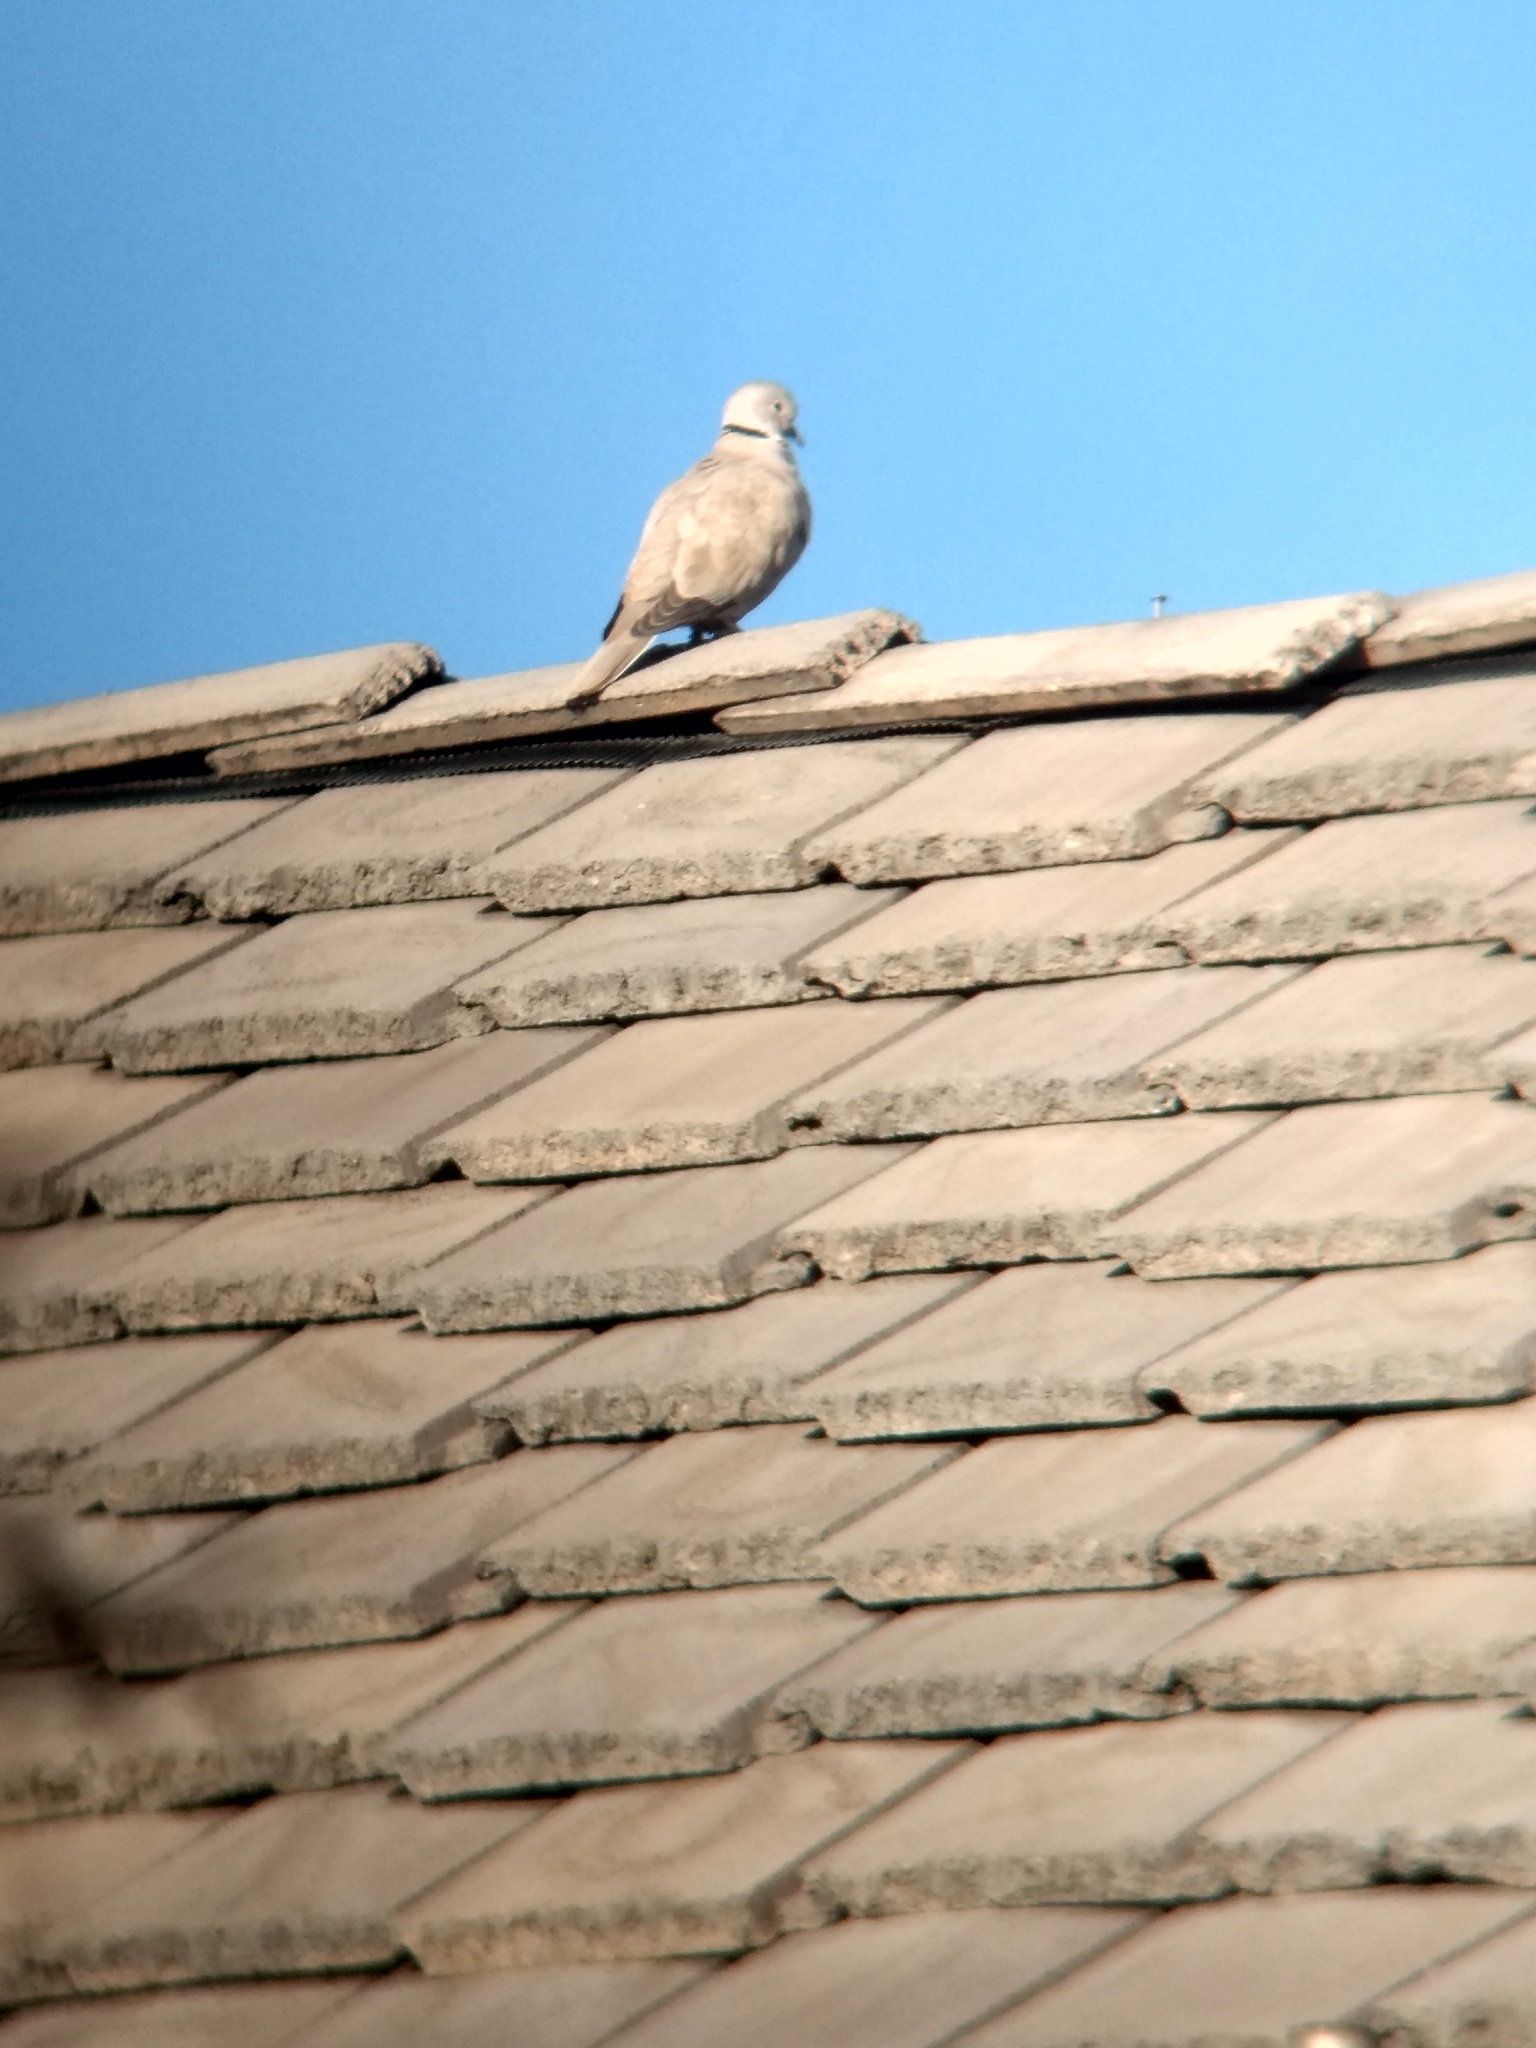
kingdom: Animalia
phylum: Chordata
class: Aves
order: Columbiformes
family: Columbidae
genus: Streptopelia
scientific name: Streptopelia decaocto
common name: Eurasian collared dove
